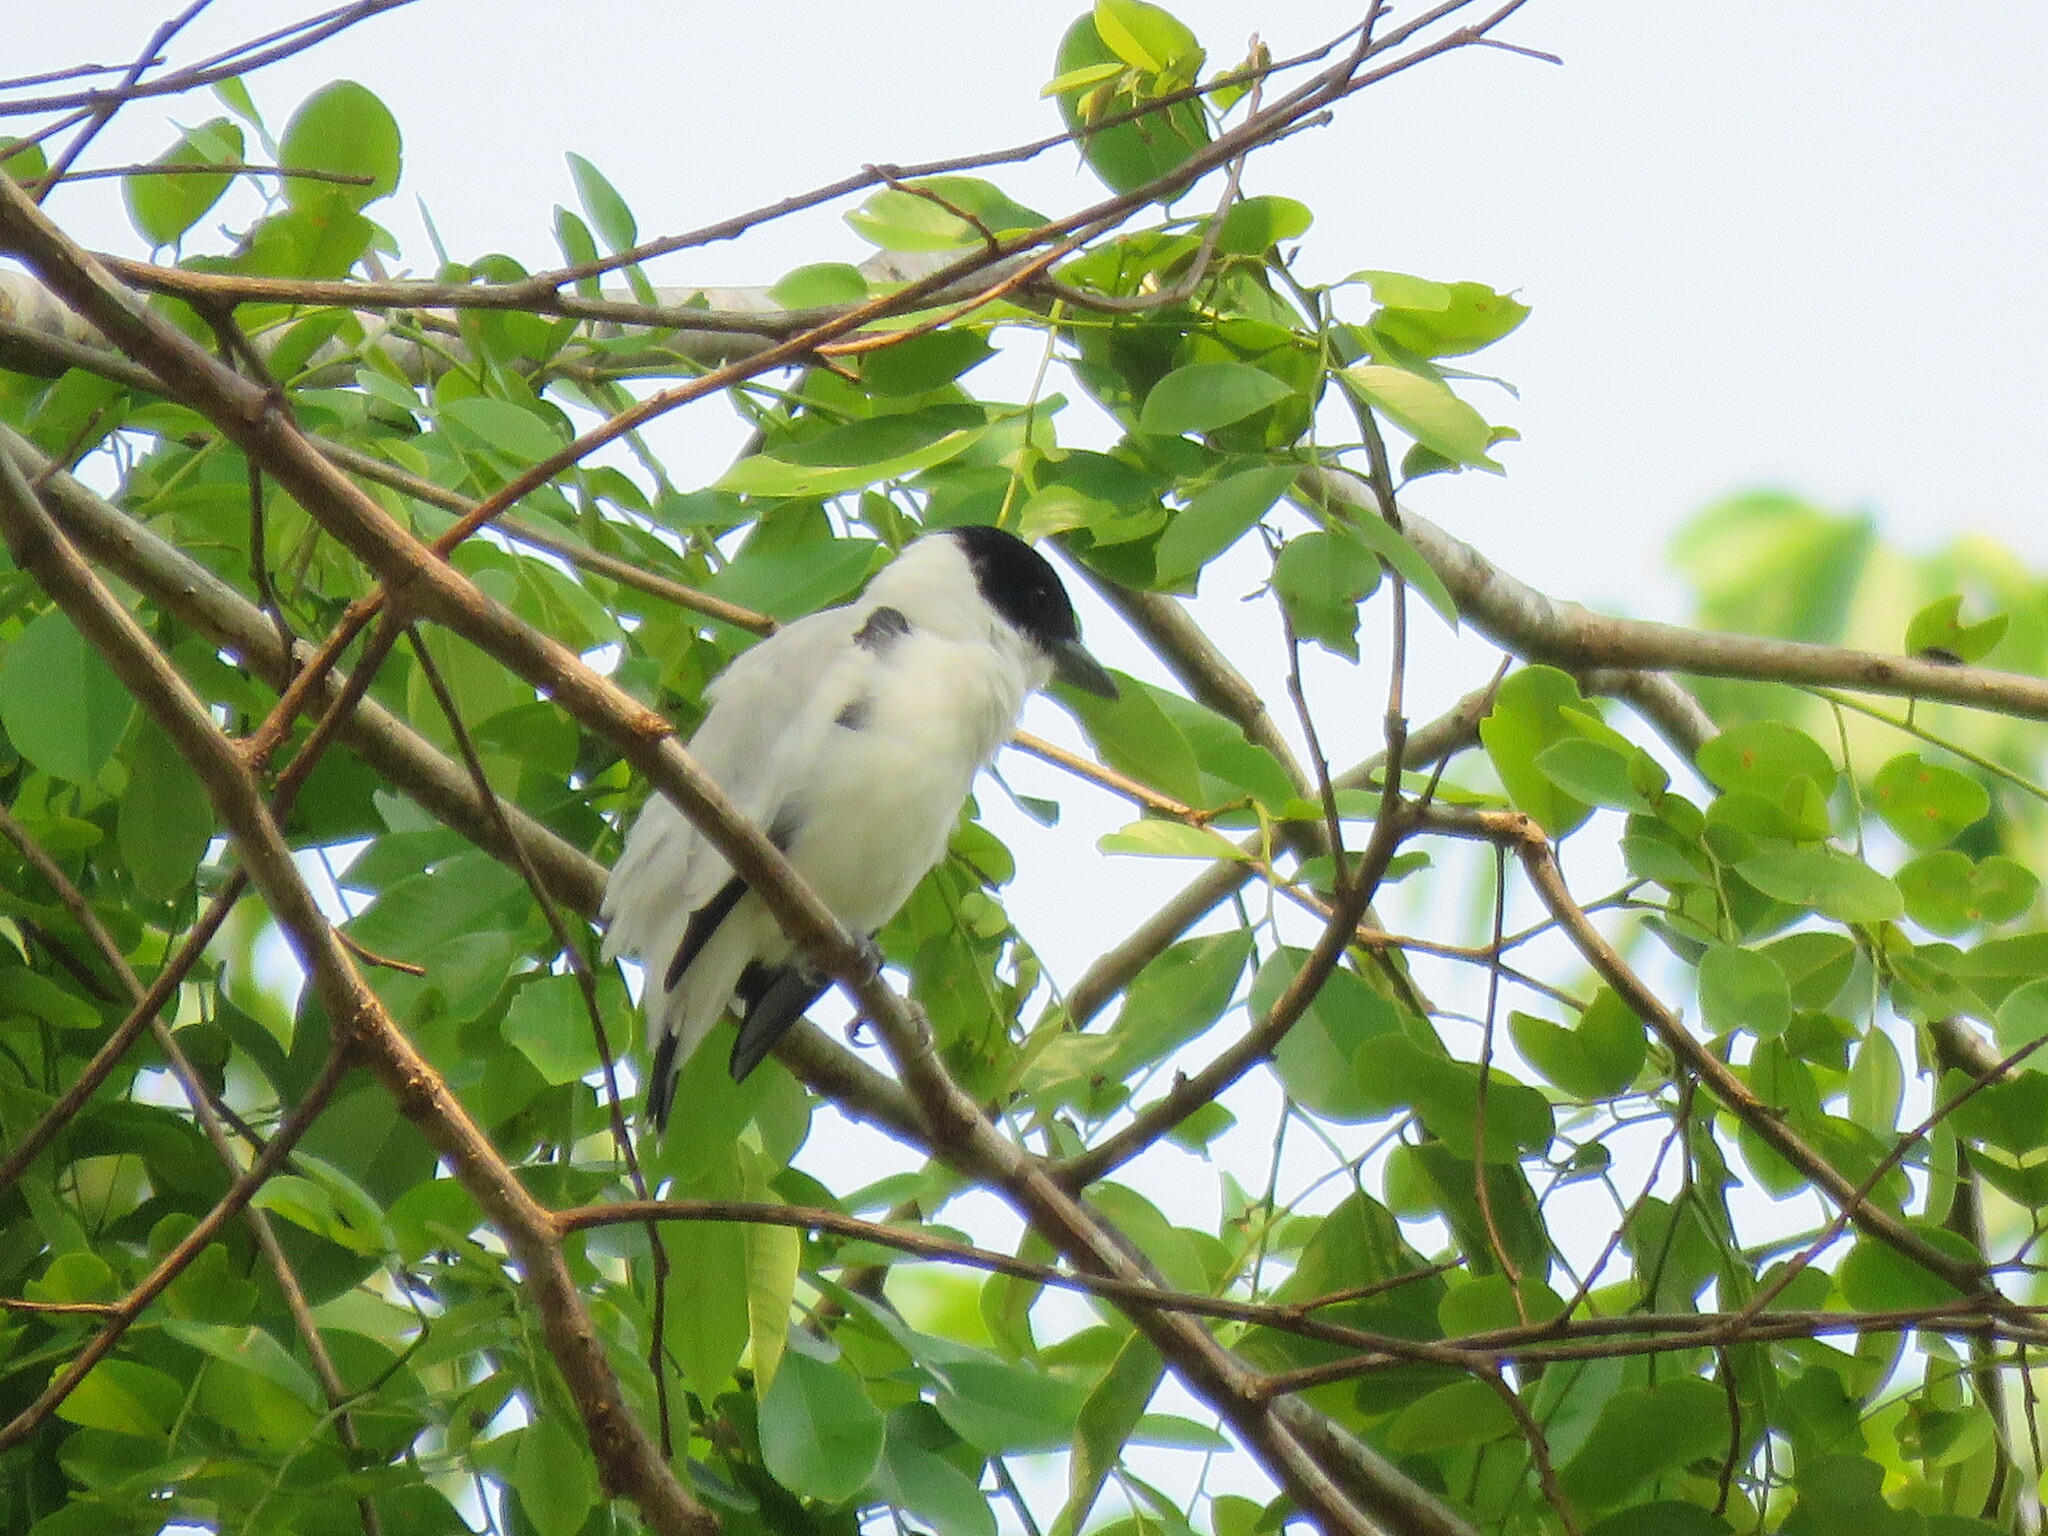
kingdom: Animalia
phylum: Chordata
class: Aves
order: Passeriformes
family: Cotingidae
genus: Tityra
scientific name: Tityra inquisitor
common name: Black-crowned tityra
